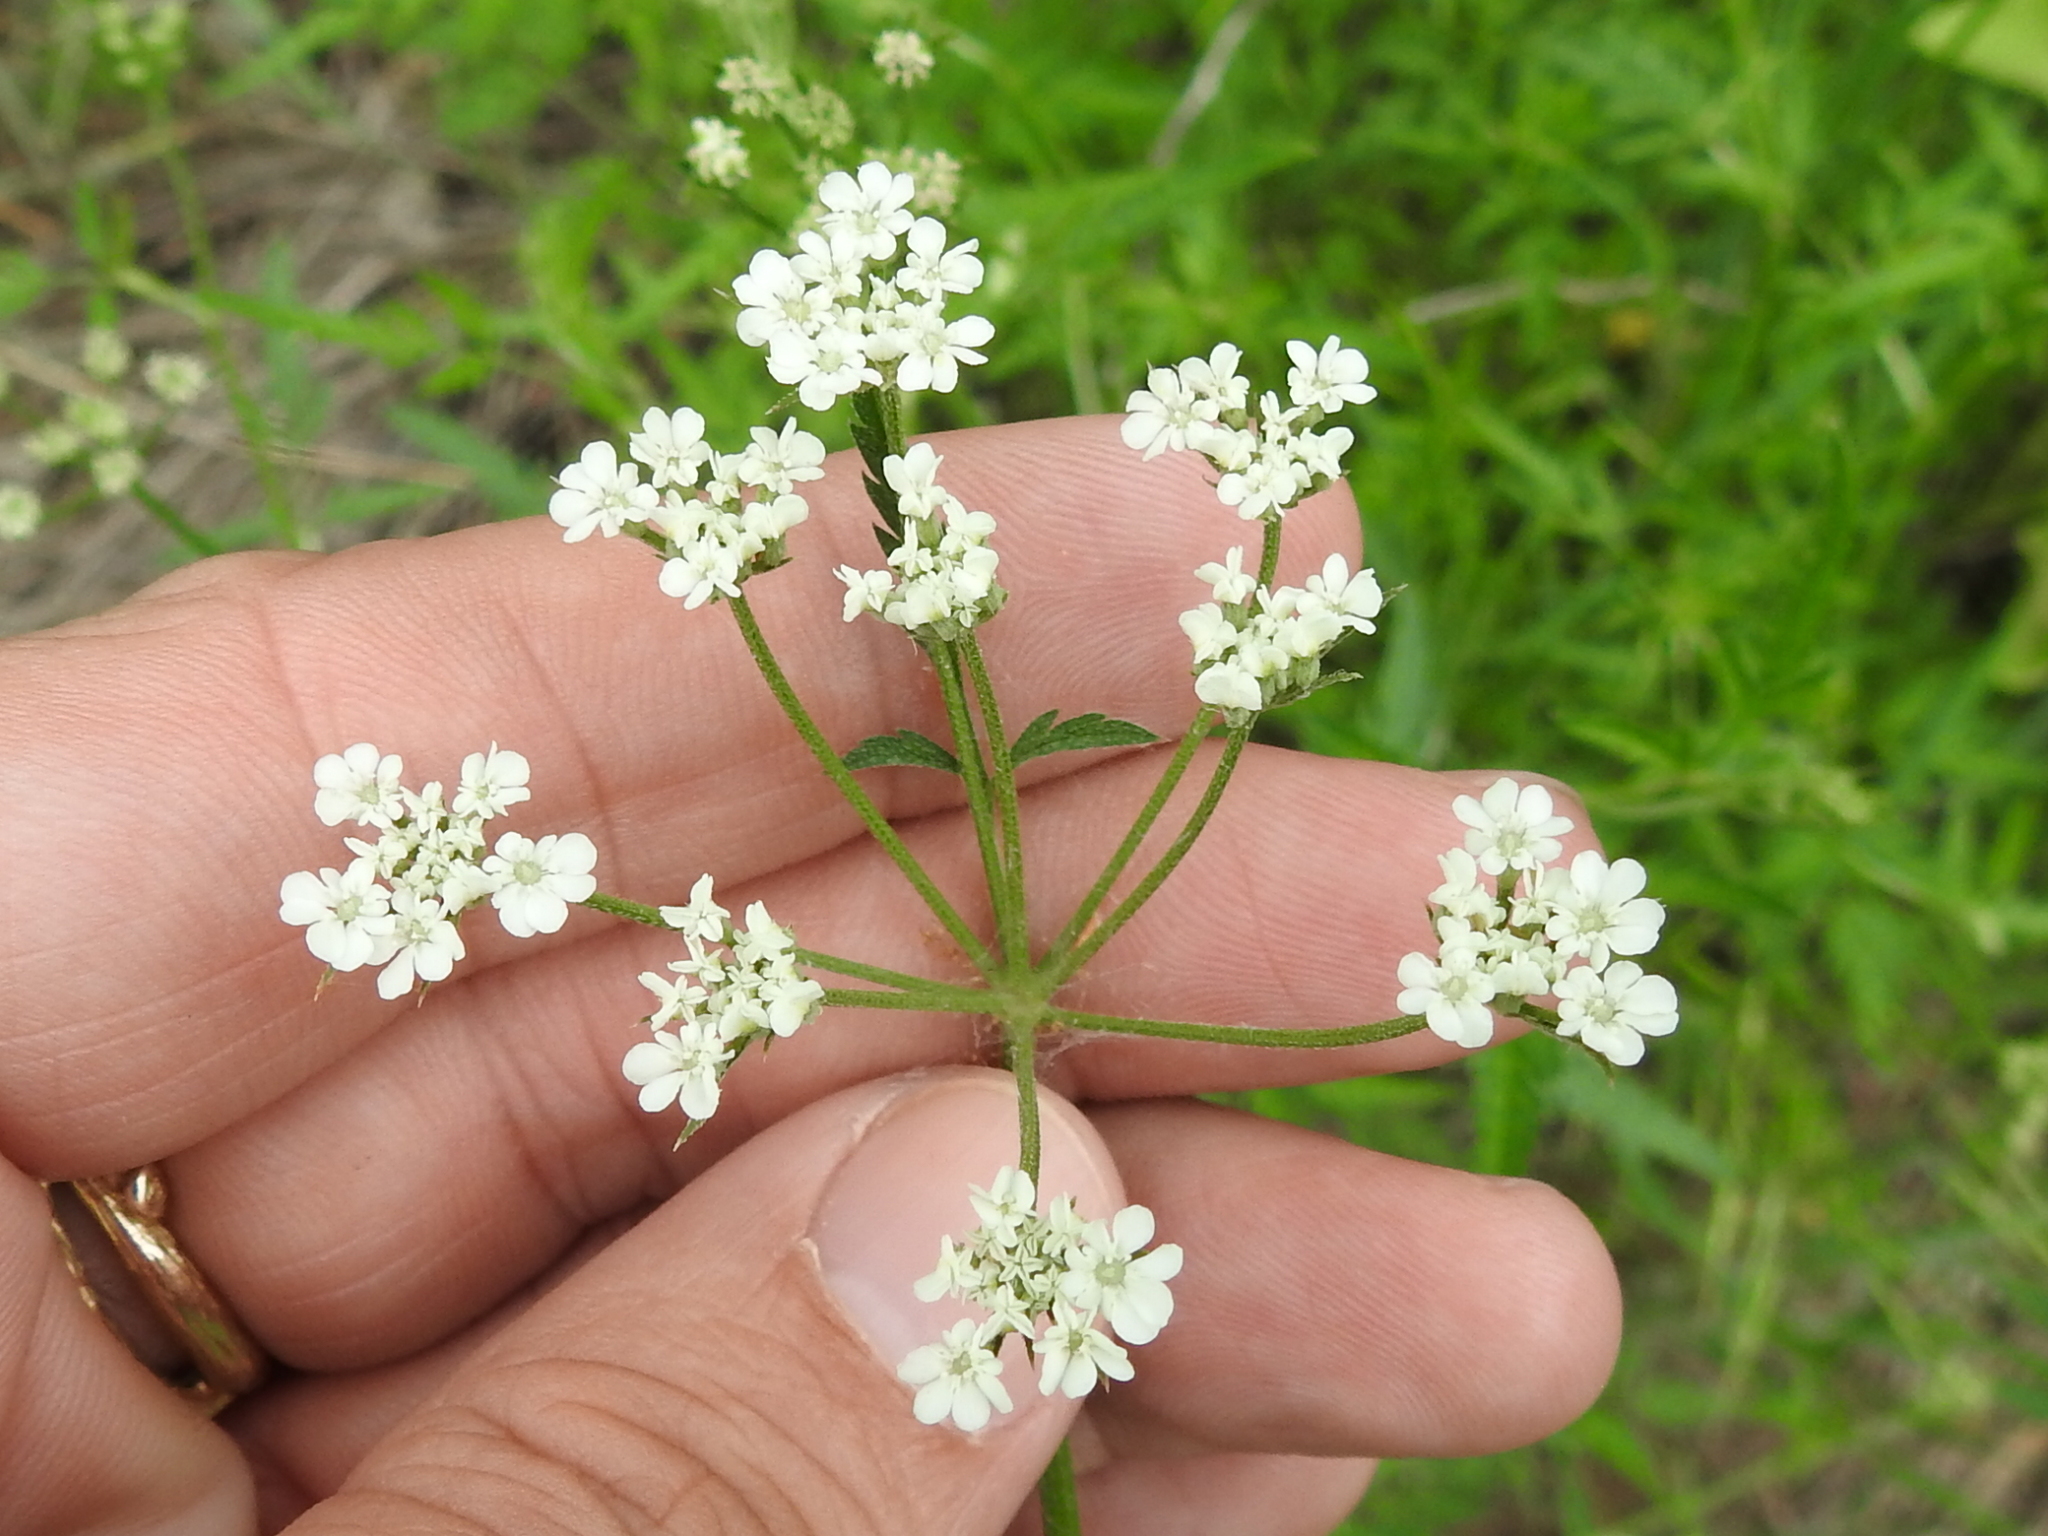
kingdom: Plantae
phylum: Tracheophyta
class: Magnoliopsida
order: Apiales
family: Apiaceae
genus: Torilis
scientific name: Torilis arvensis
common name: Spreading hedge-parsley
